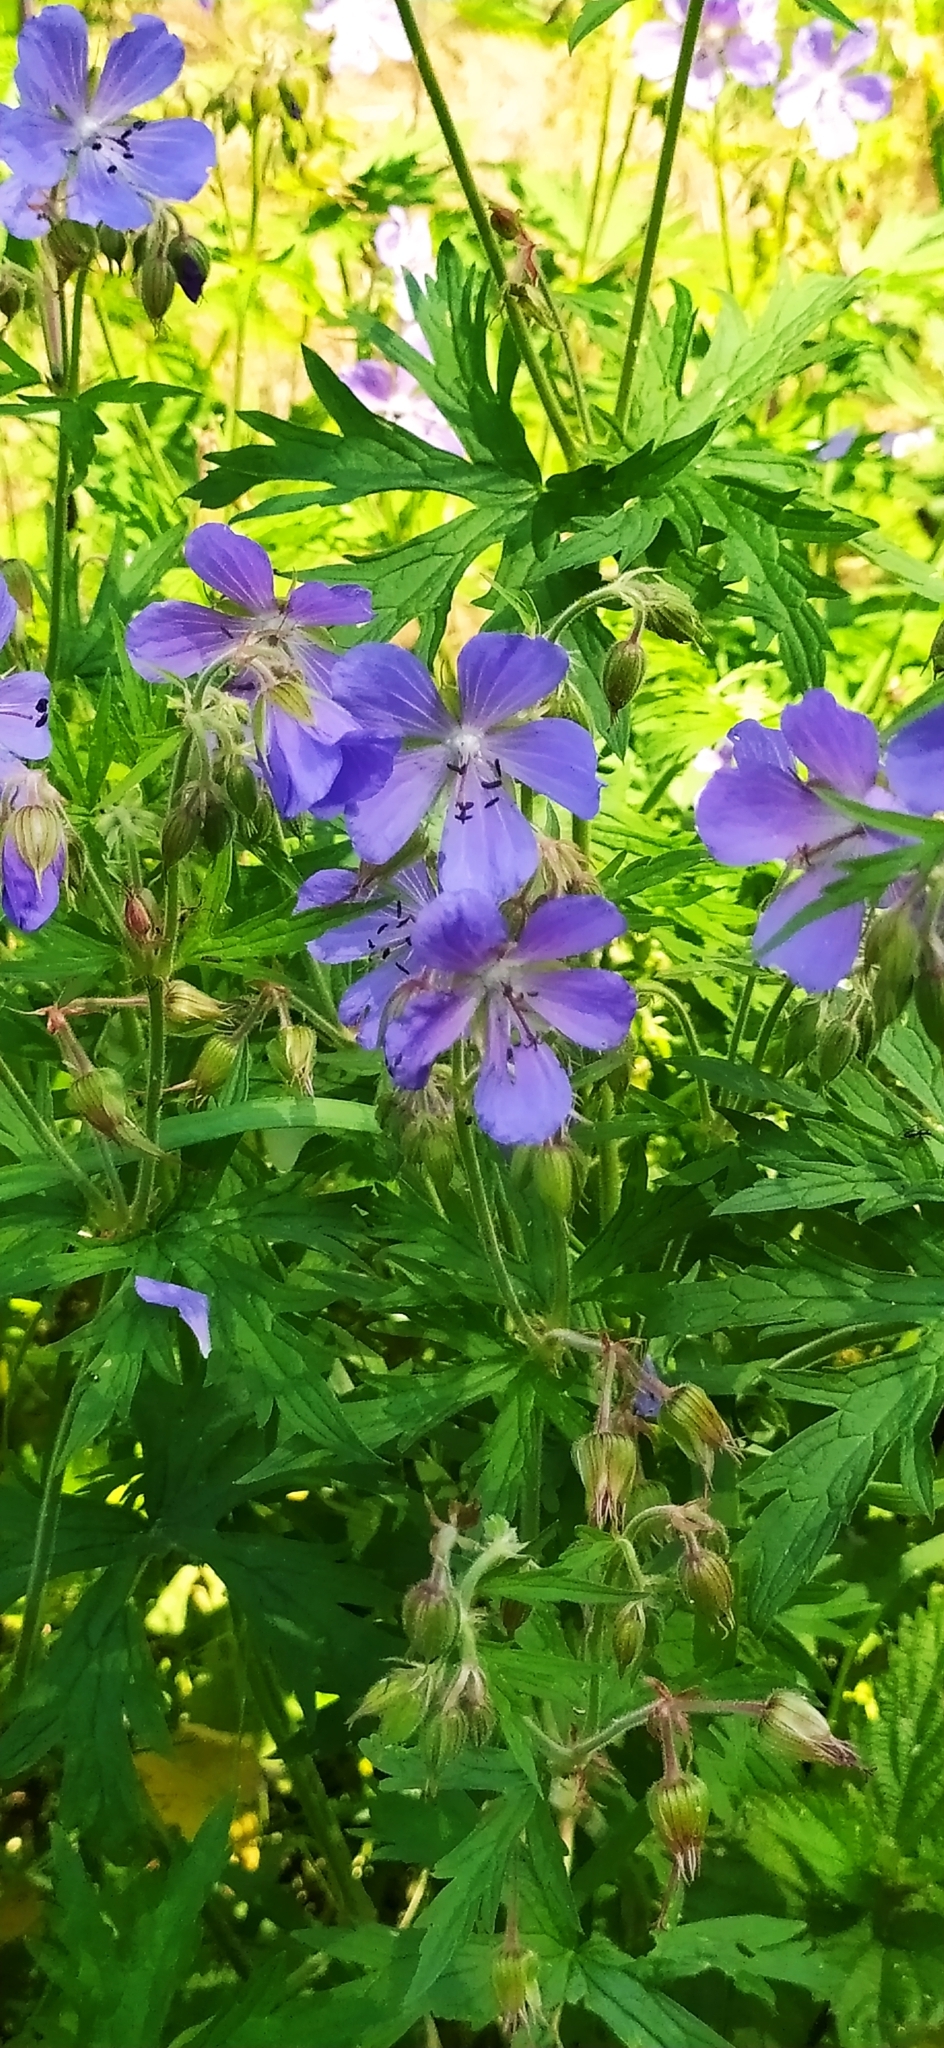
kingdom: Plantae
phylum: Tracheophyta
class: Magnoliopsida
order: Geraniales
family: Geraniaceae
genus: Geranium
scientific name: Geranium pratense
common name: Meadow crane's-bill
